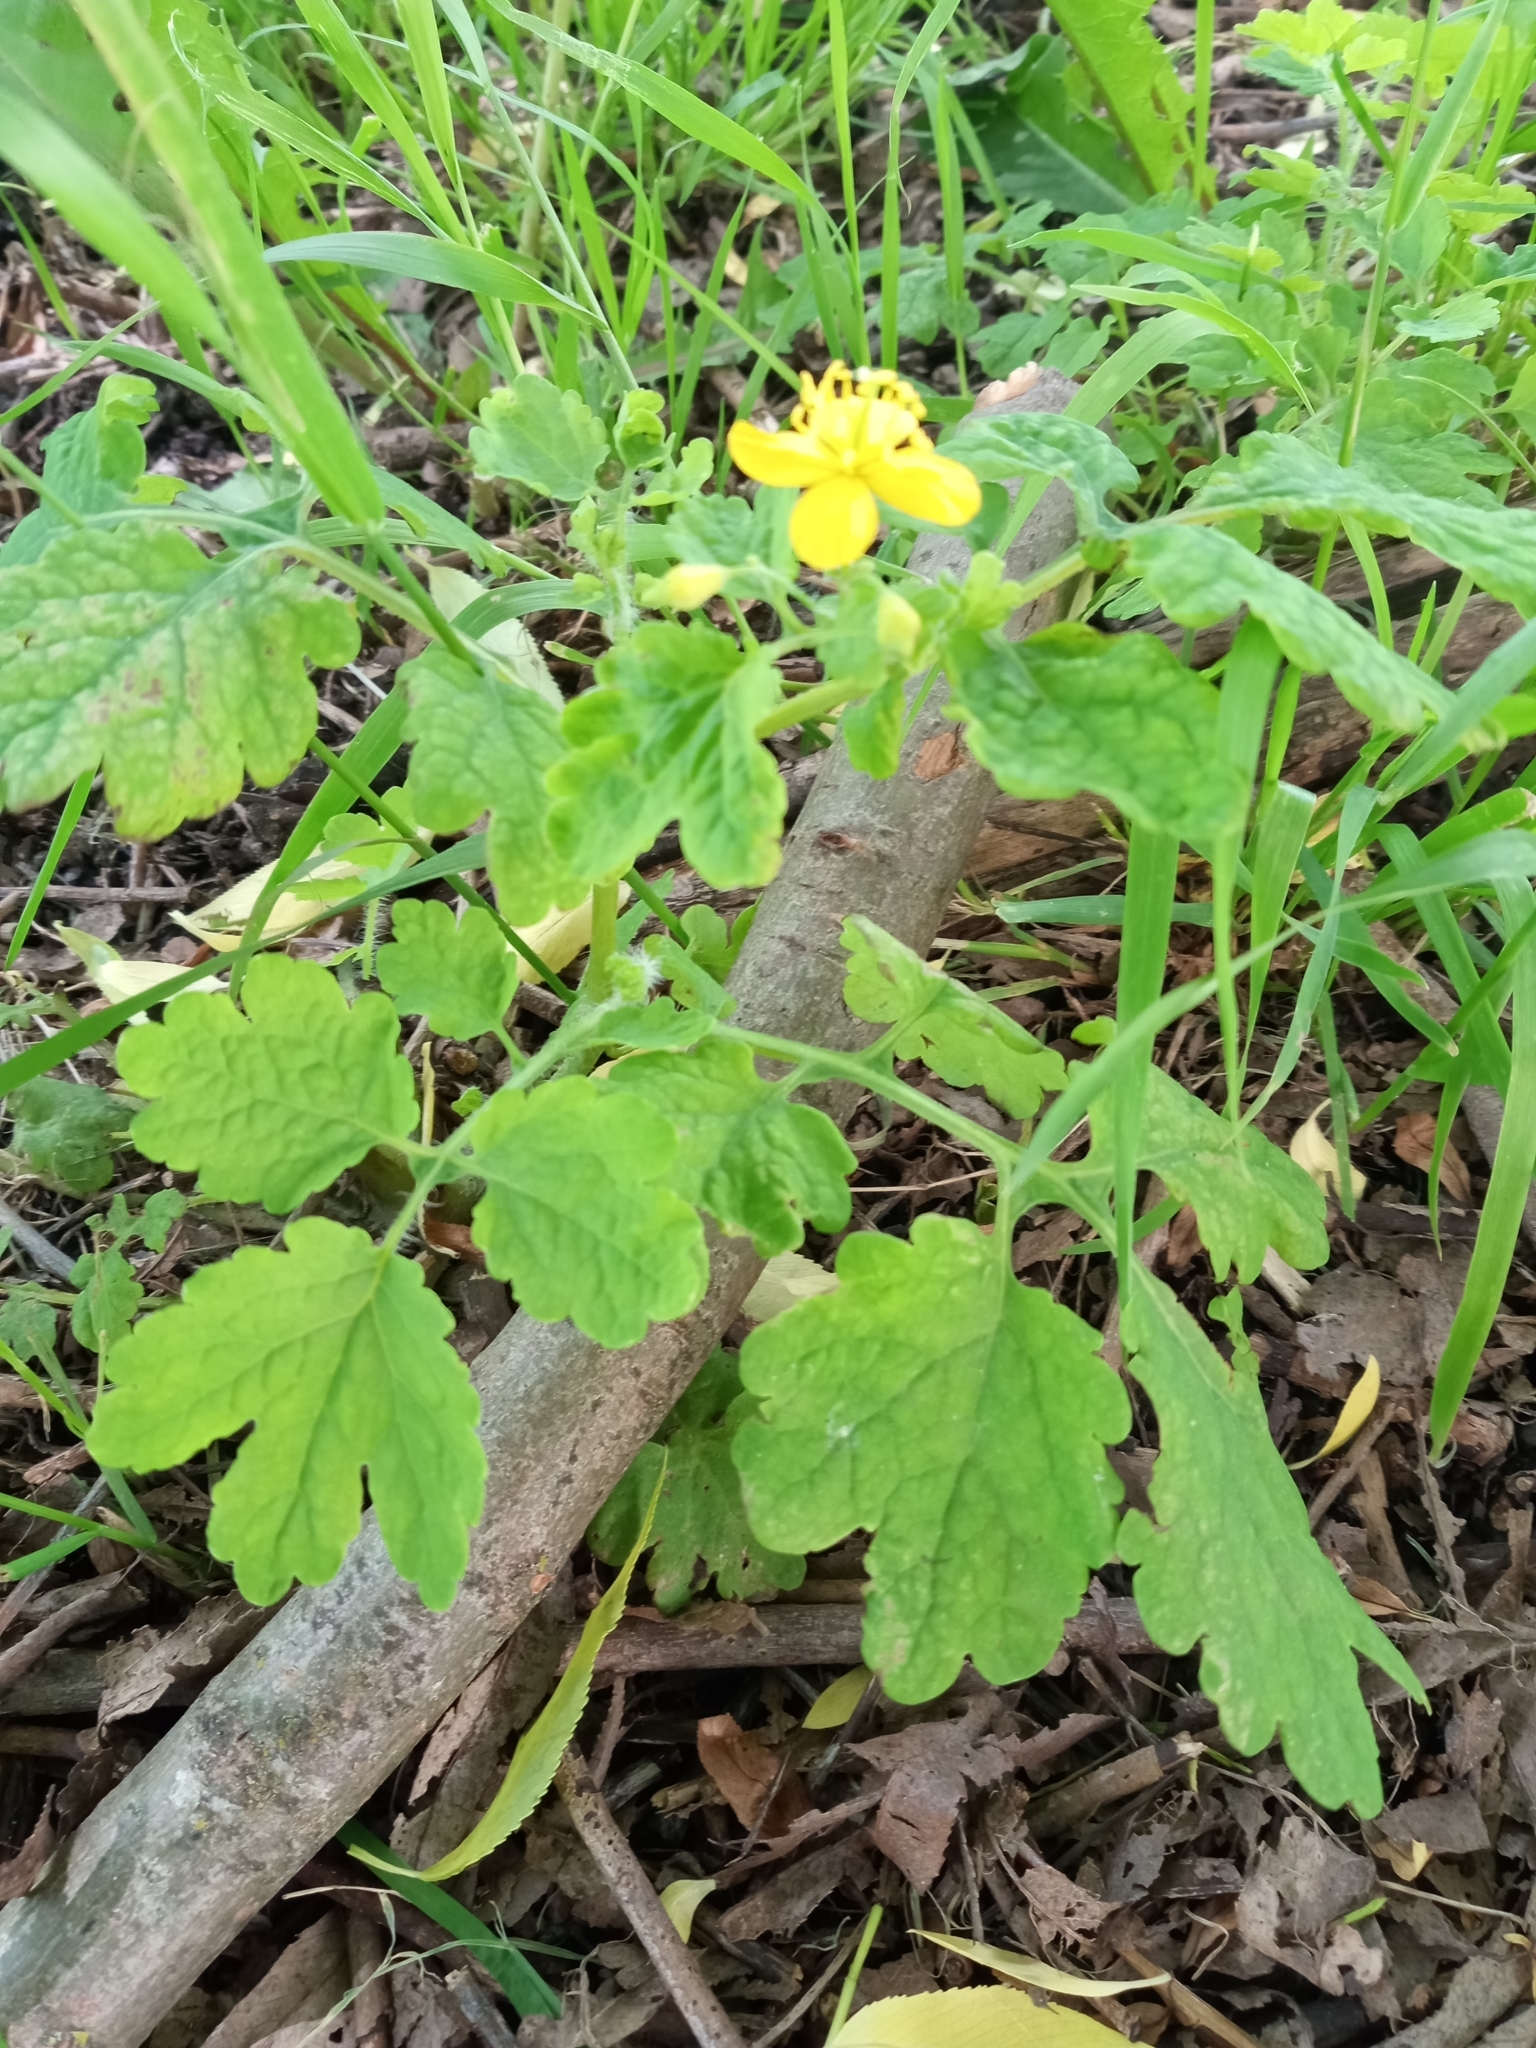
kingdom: Plantae
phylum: Tracheophyta
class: Magnoliopsida
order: Ranunculales
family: Papaveraceae
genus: Chelidonium
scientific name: Chelidonium majus
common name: Greater celandine
